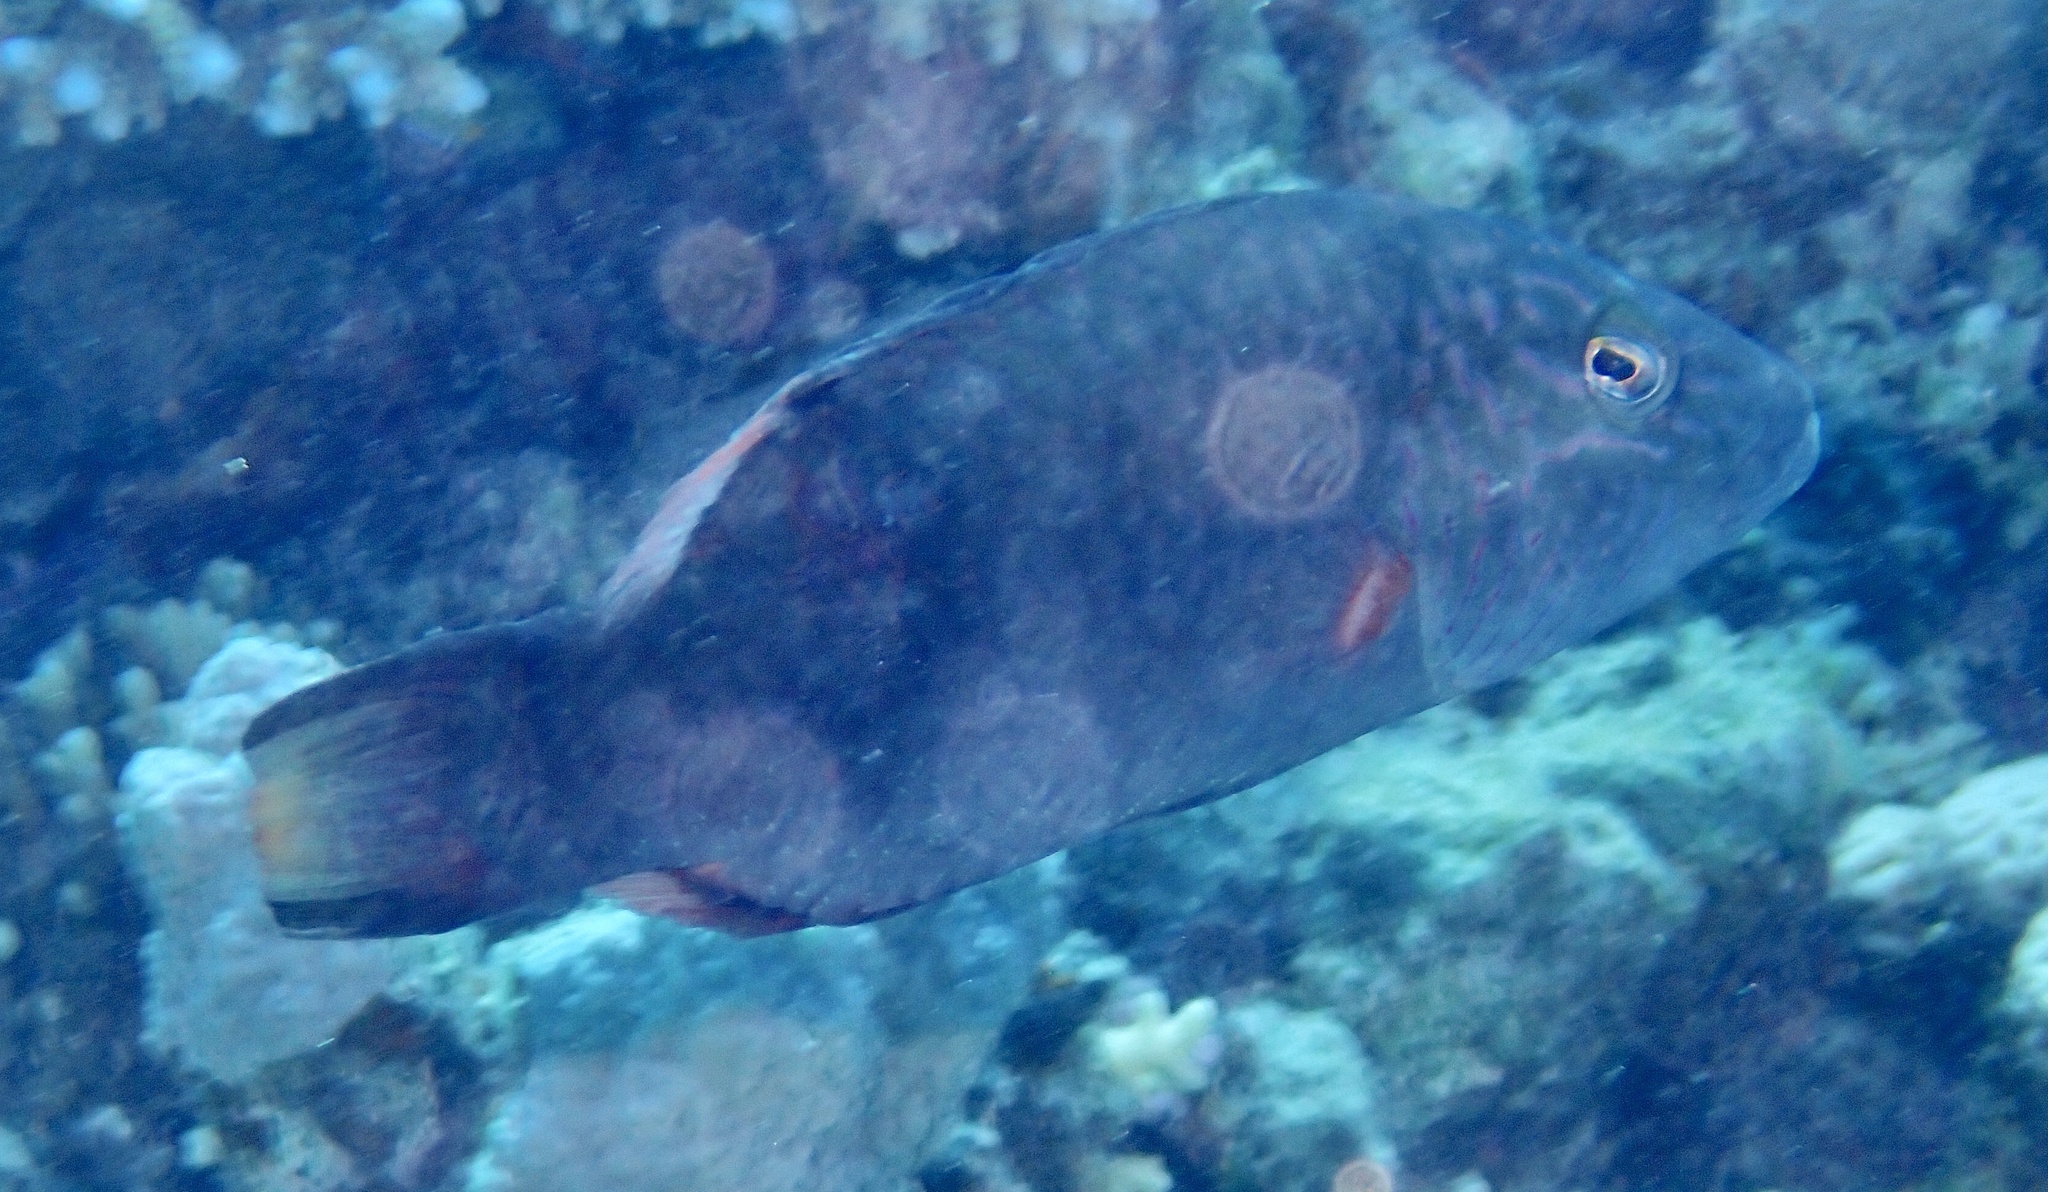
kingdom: Animalia
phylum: Chordata
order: Perciformes
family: Labridae
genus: Oxycheilinus
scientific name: Oxycheilinus digramma
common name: Bandcheek wrasse
